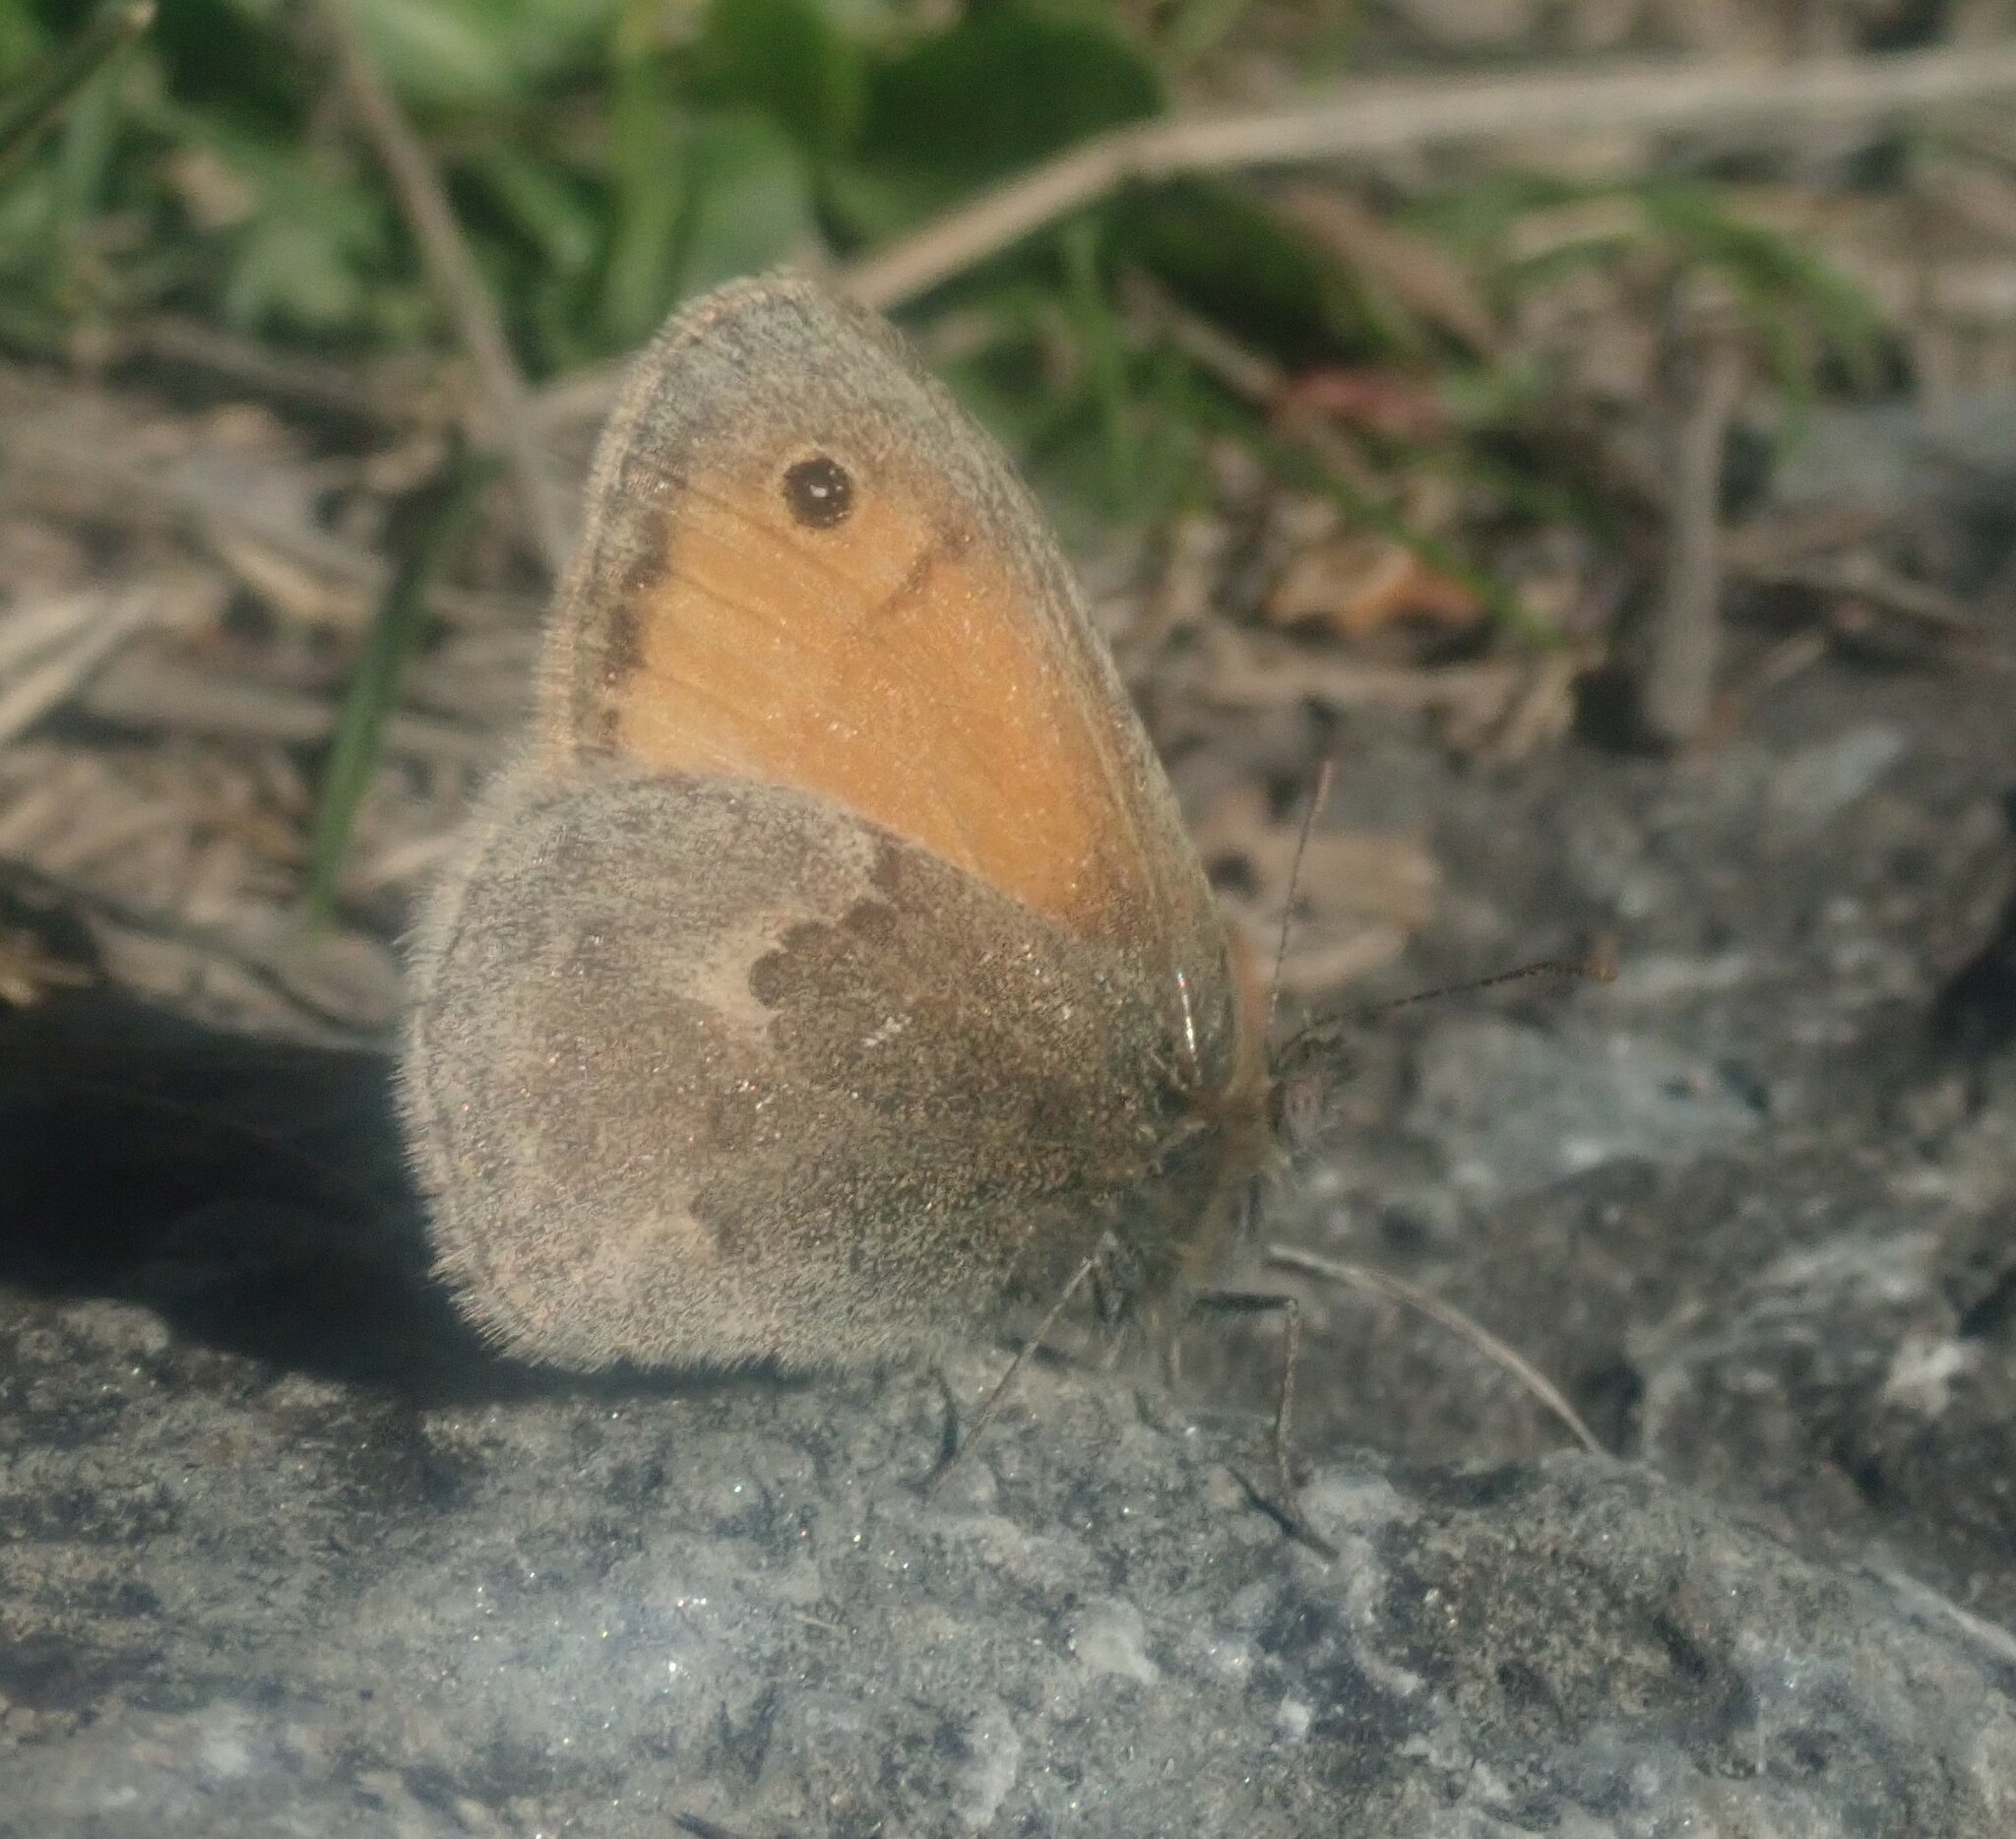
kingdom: Animalia
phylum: Arthropoda
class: Insecta
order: Lepidoptera
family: Nymphalidae
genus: Coenonympha
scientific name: Coenonympha pamphilus
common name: Small heath
